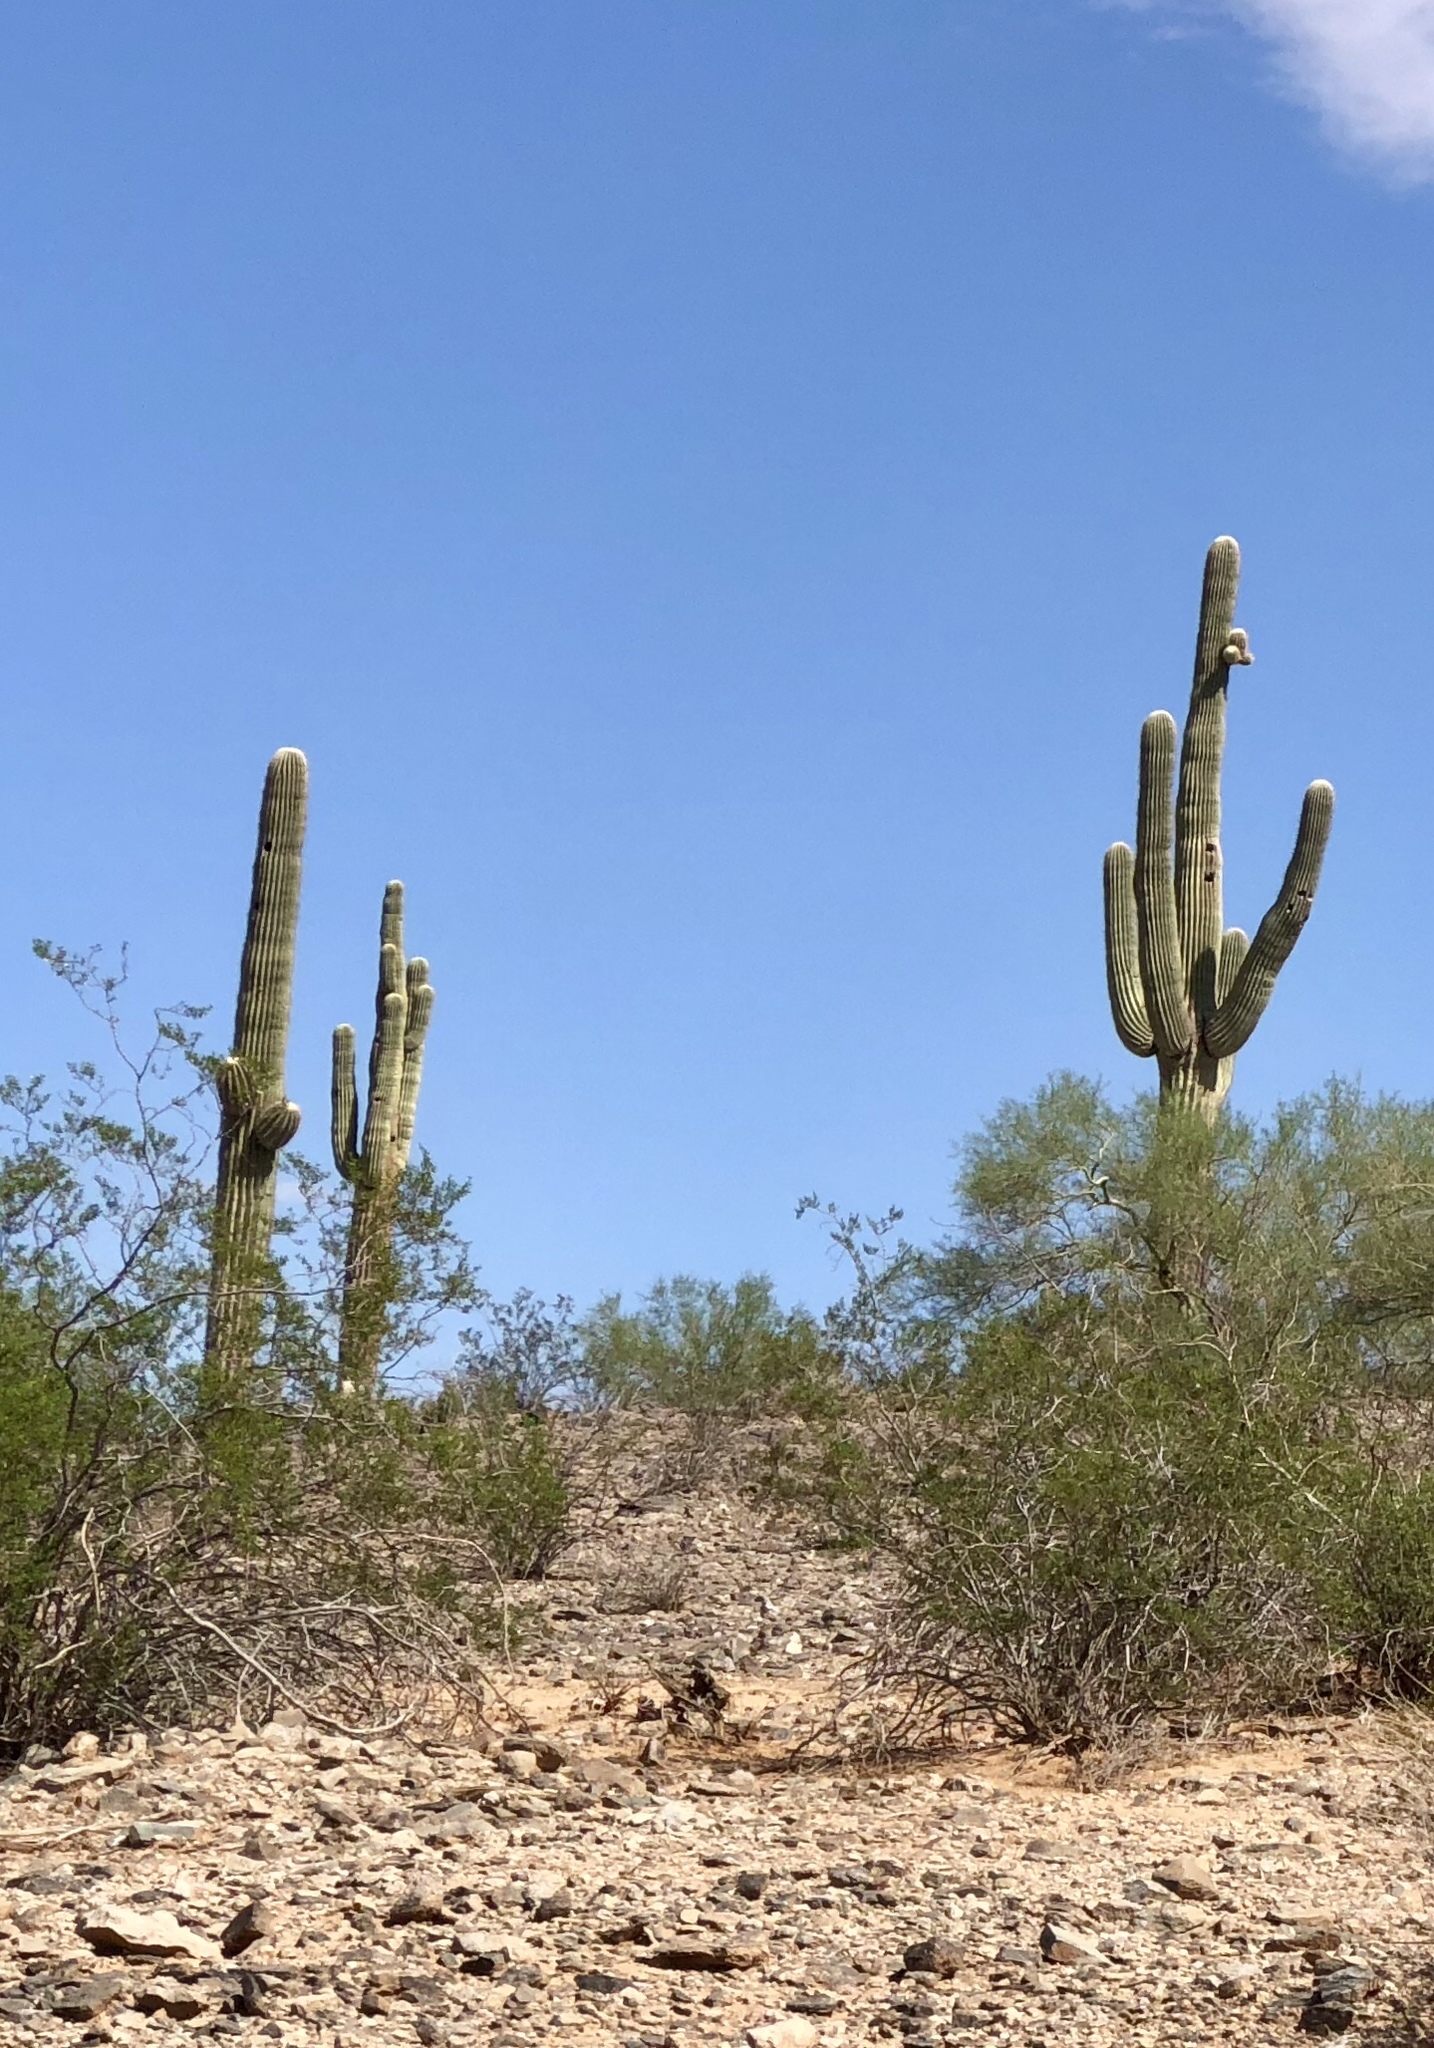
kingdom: Plantae
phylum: Tracheophyta
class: Magnoliopsida
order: Caryophyllales
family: Cactaceae
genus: Carnegiea
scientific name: Carnegiea gigantea
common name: Saguaro
